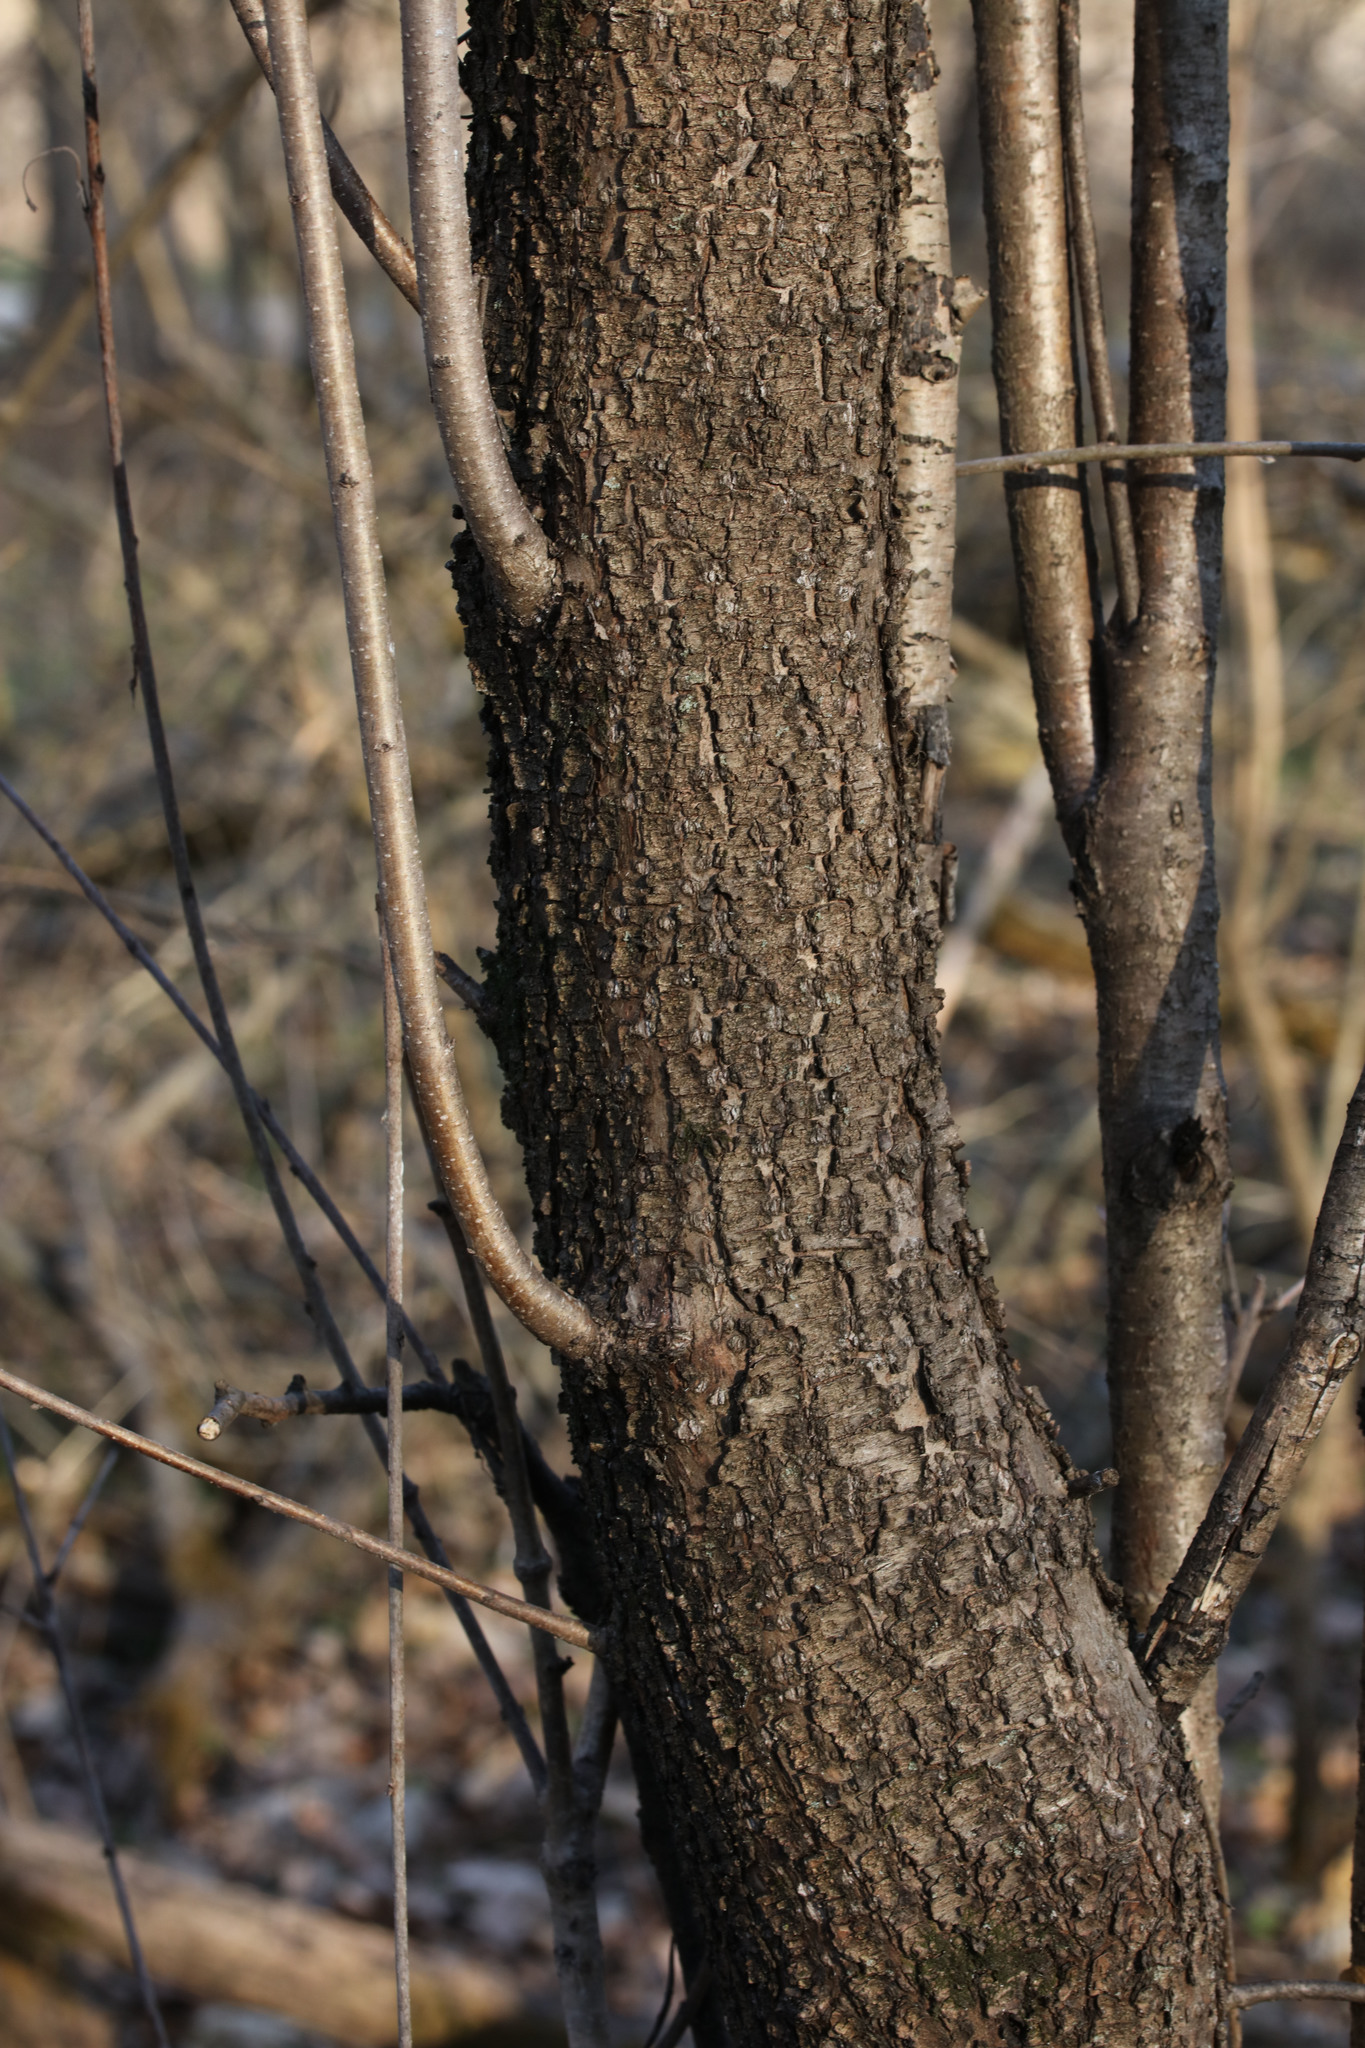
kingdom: Plantae
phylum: Tracheophyta
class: Magnoliopsida
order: Rosales
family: Rhamnaceae
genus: Rhamnus
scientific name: Rhamnus cathartica
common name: Common buckthorn
